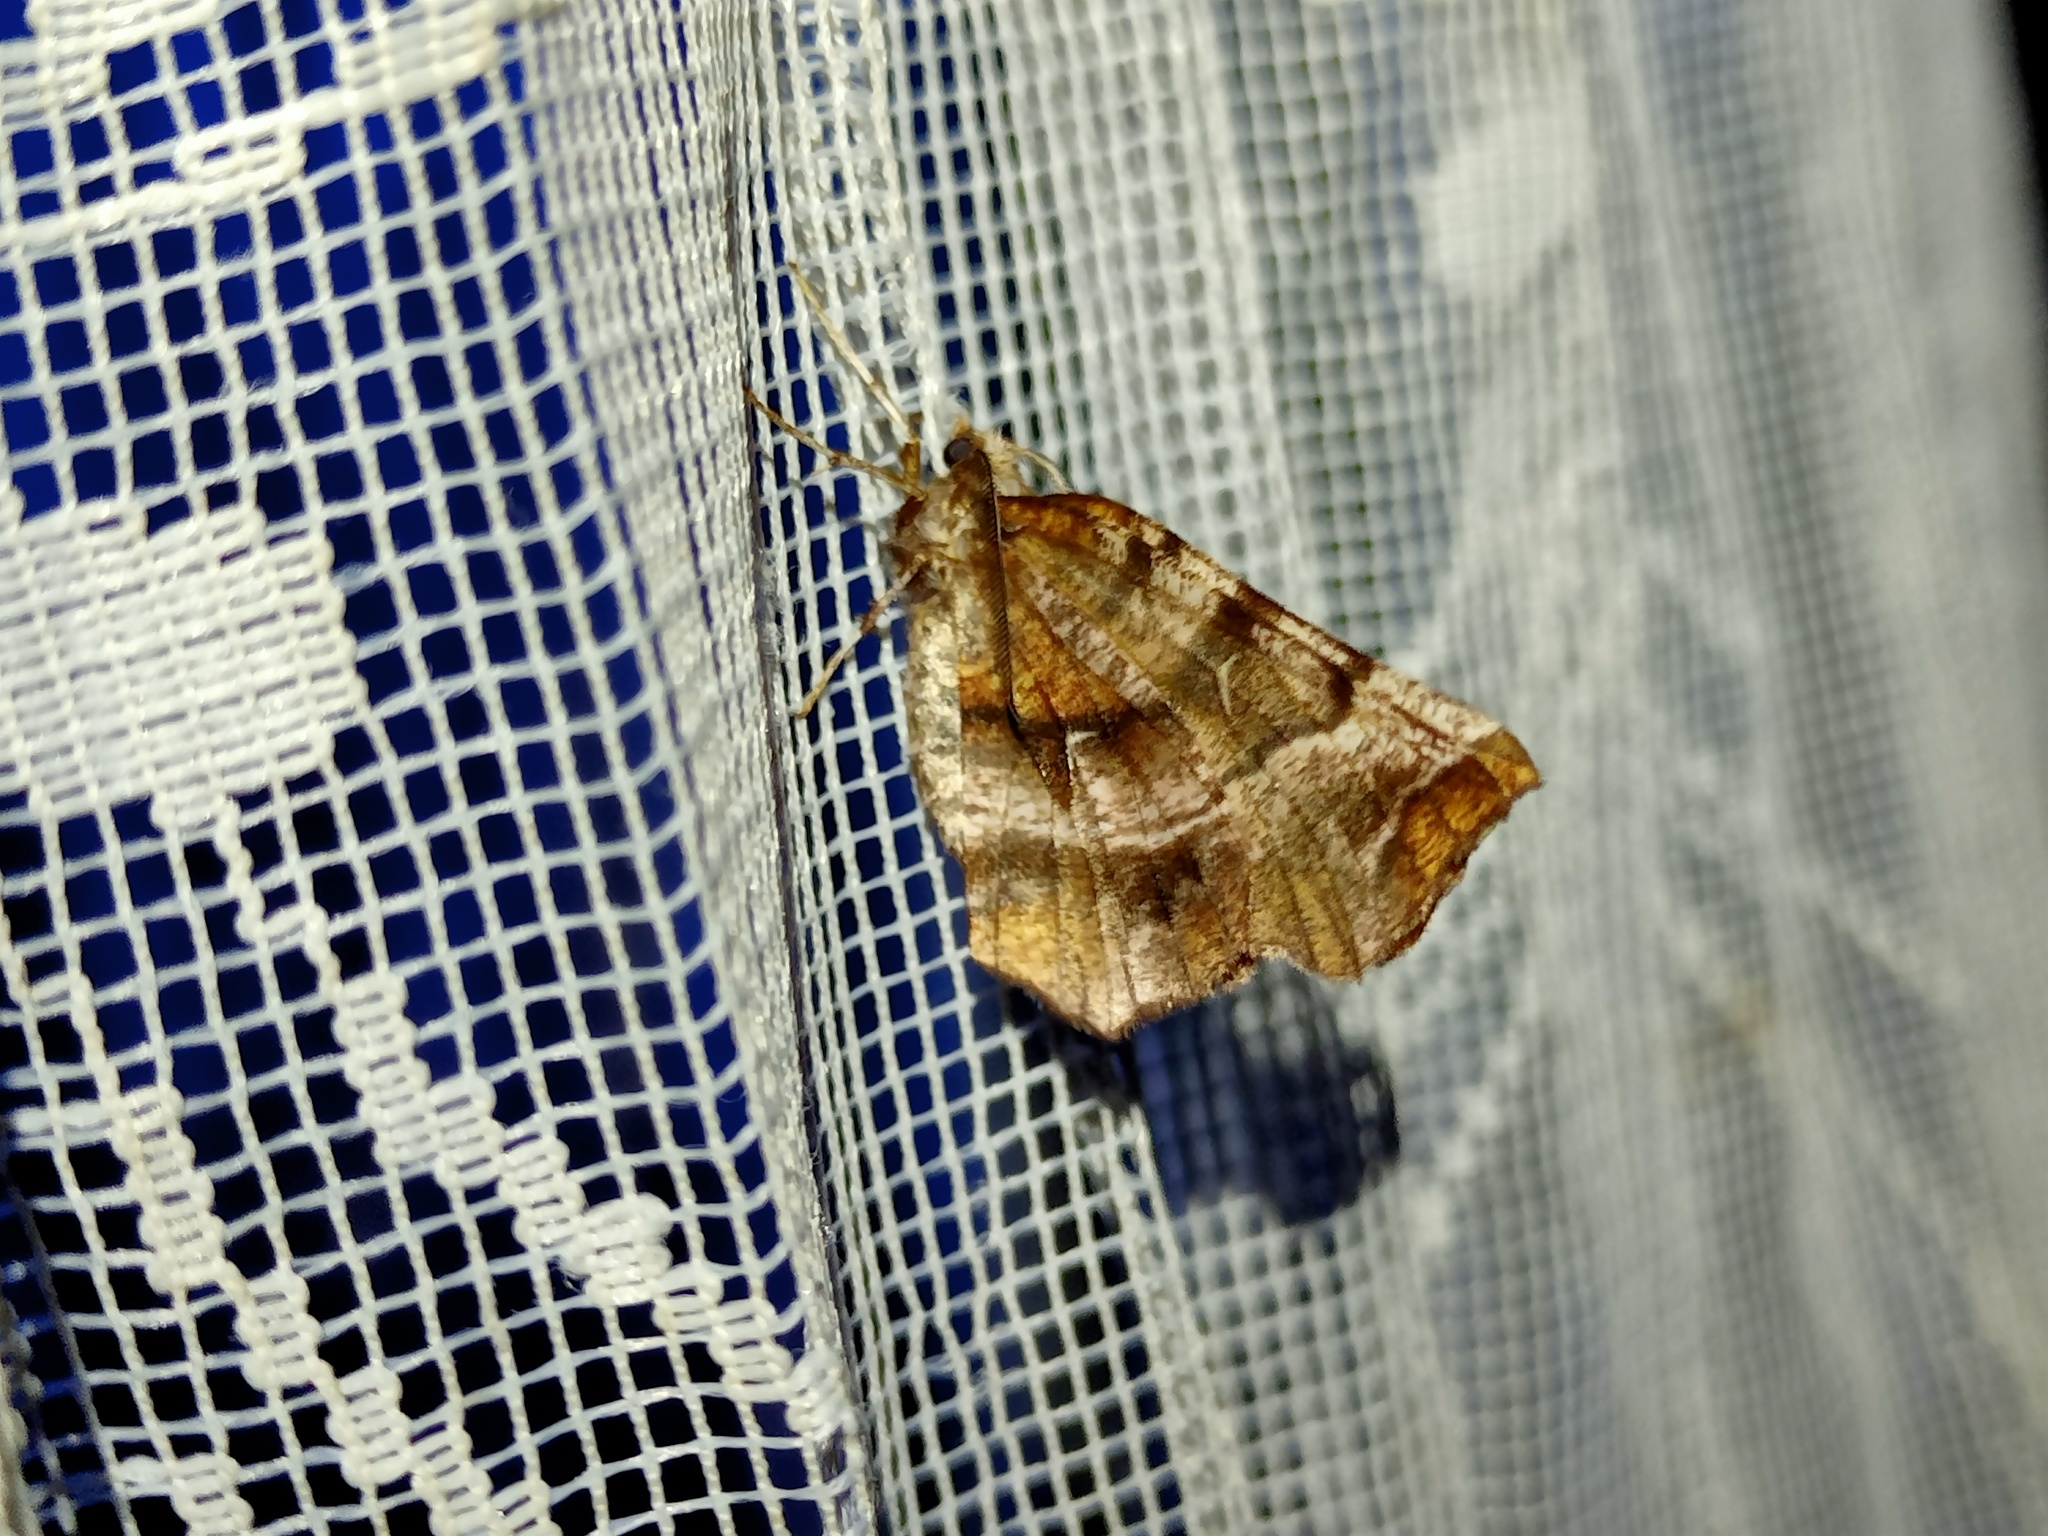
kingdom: Animalia
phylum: Arthropoda
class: Insecta
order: Lepidoptera
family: Geometridae
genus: Selenia
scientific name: Selenia dentaria
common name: Early thorn
